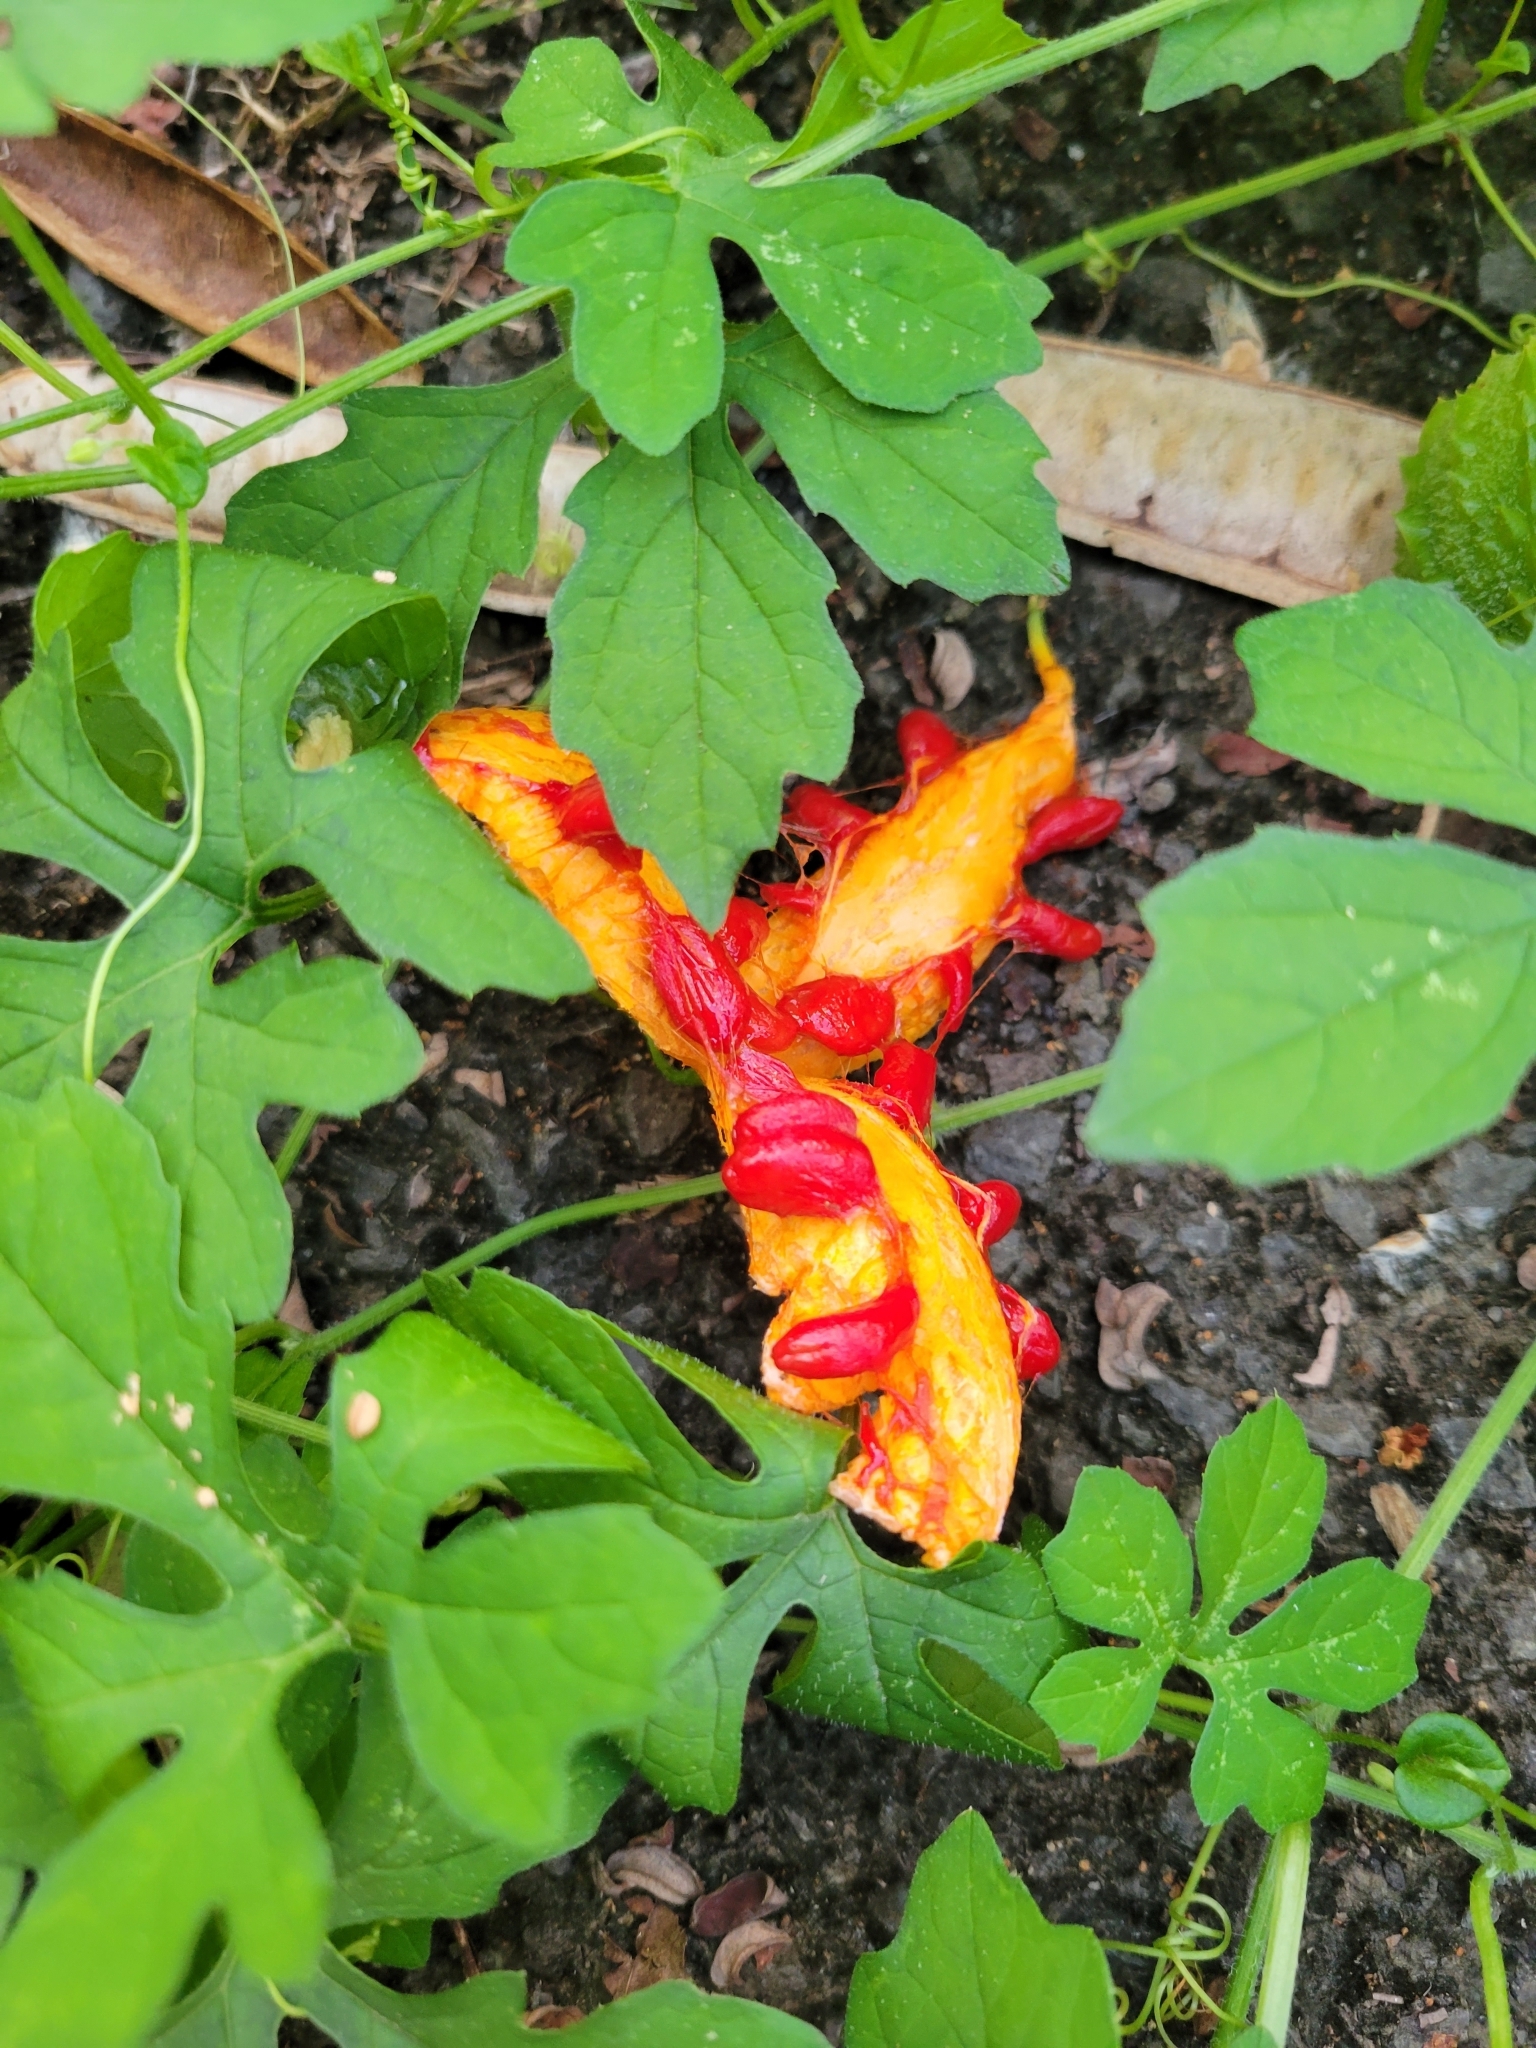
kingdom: Plantae
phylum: Tracheophyta
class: Magnoliopsida
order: Cucurbitales
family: Cucurbitaceae
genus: Momordica
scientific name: Momordica charantia
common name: Balsampear
